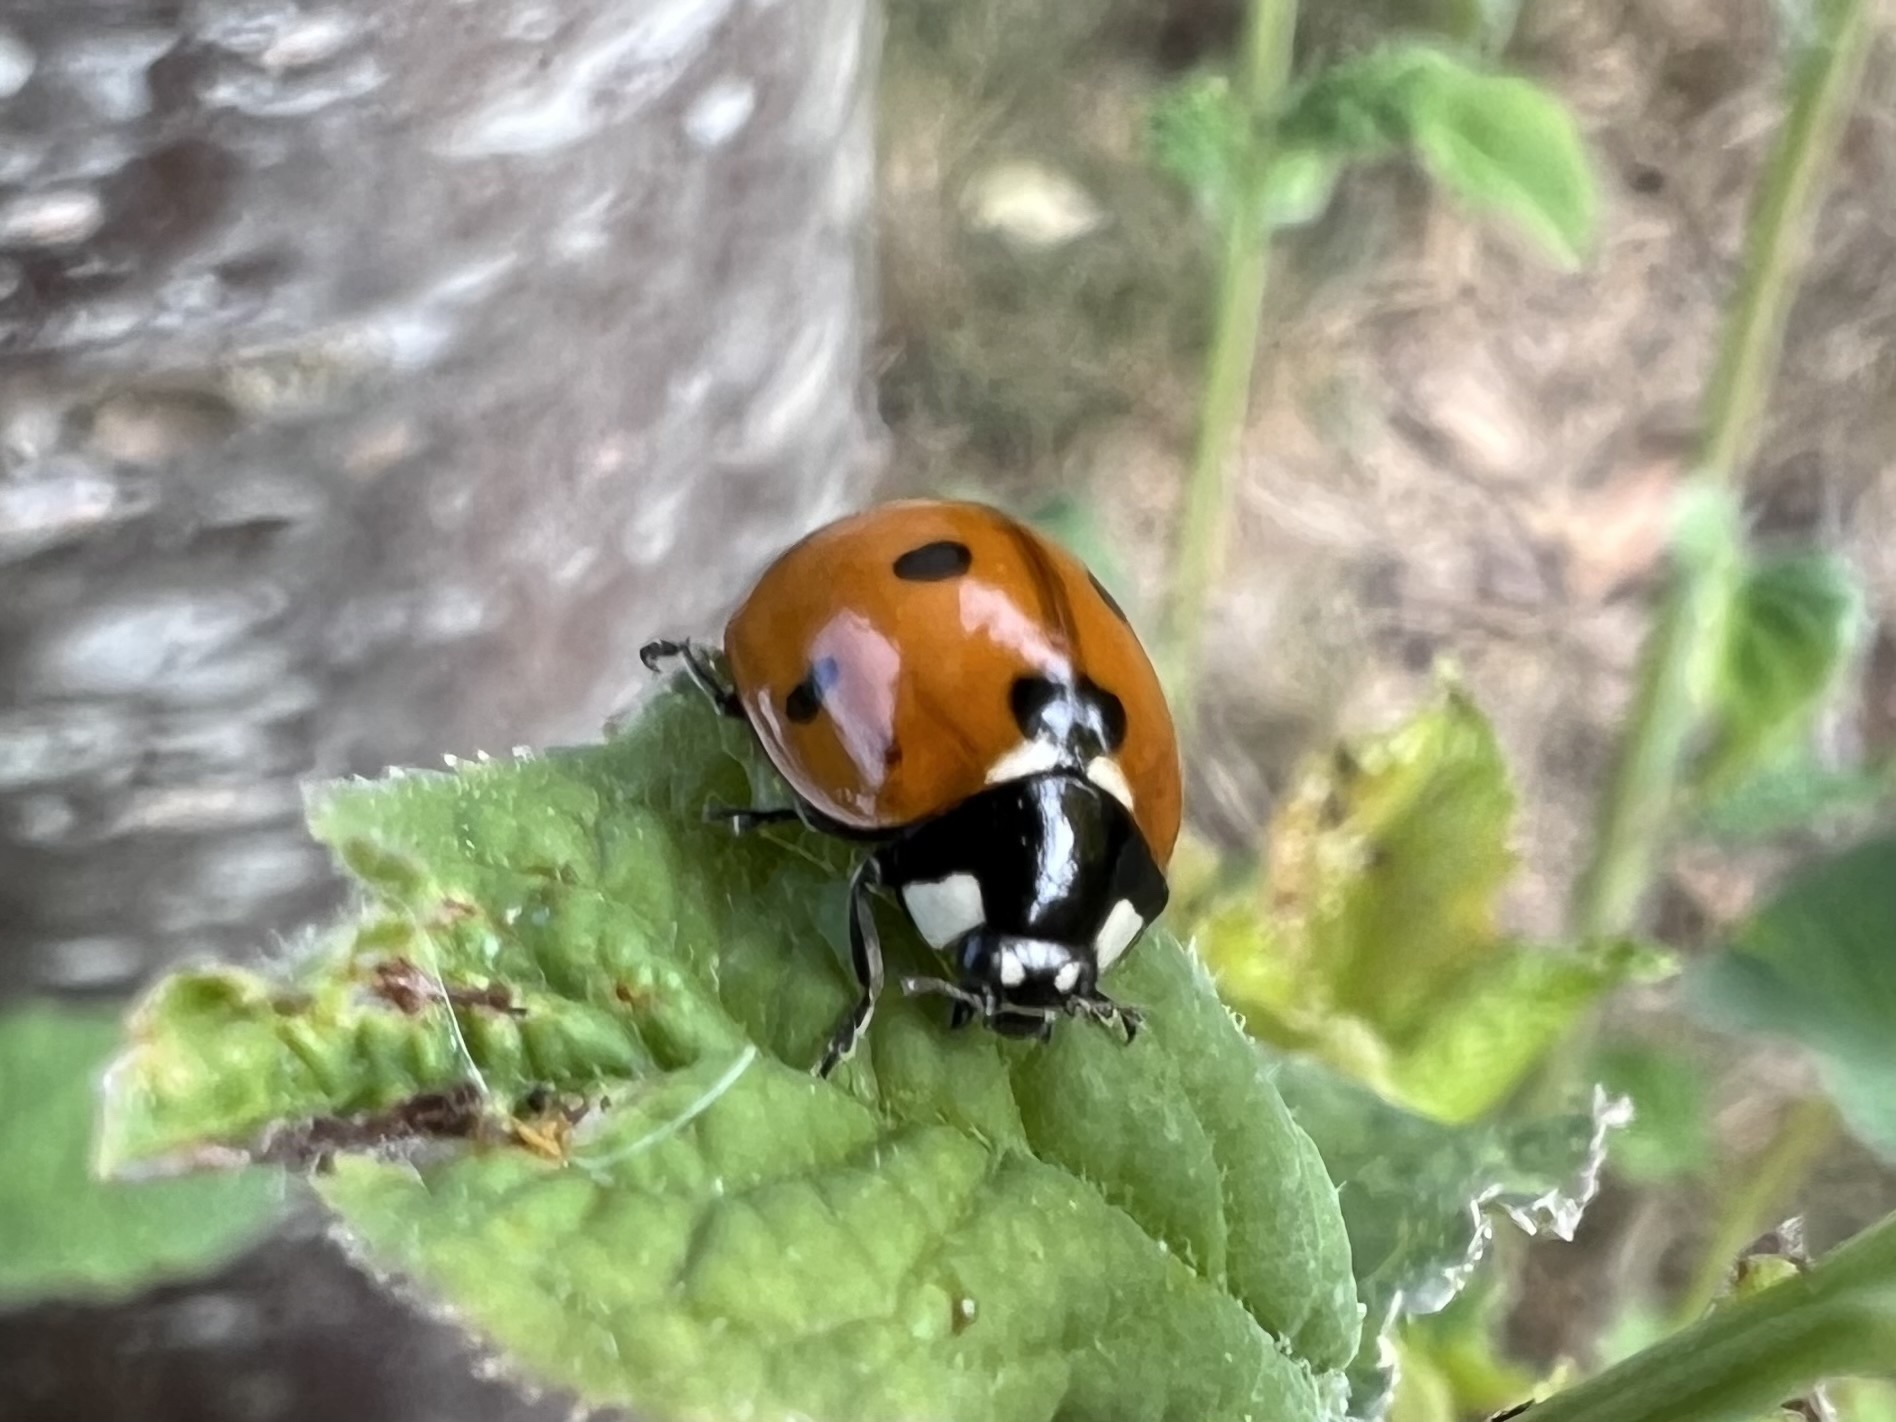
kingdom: Animalia
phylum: Arthropoda
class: Insecta
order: Coleoptera
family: Coccinellidae
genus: Coccinella
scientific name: Coccinella septempunctata
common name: Sevenspotted lady beetle
